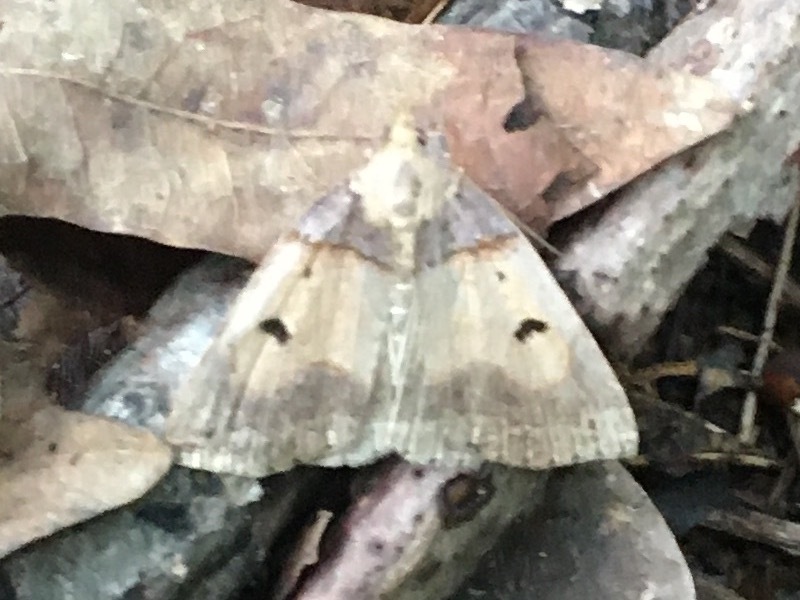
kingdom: Animalia
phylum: Arthropoda
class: Insecta
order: Lepidoptera
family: Erebidae
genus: Zanclognatha
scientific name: Zanclognatha laevigata
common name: Variable fan-foot
